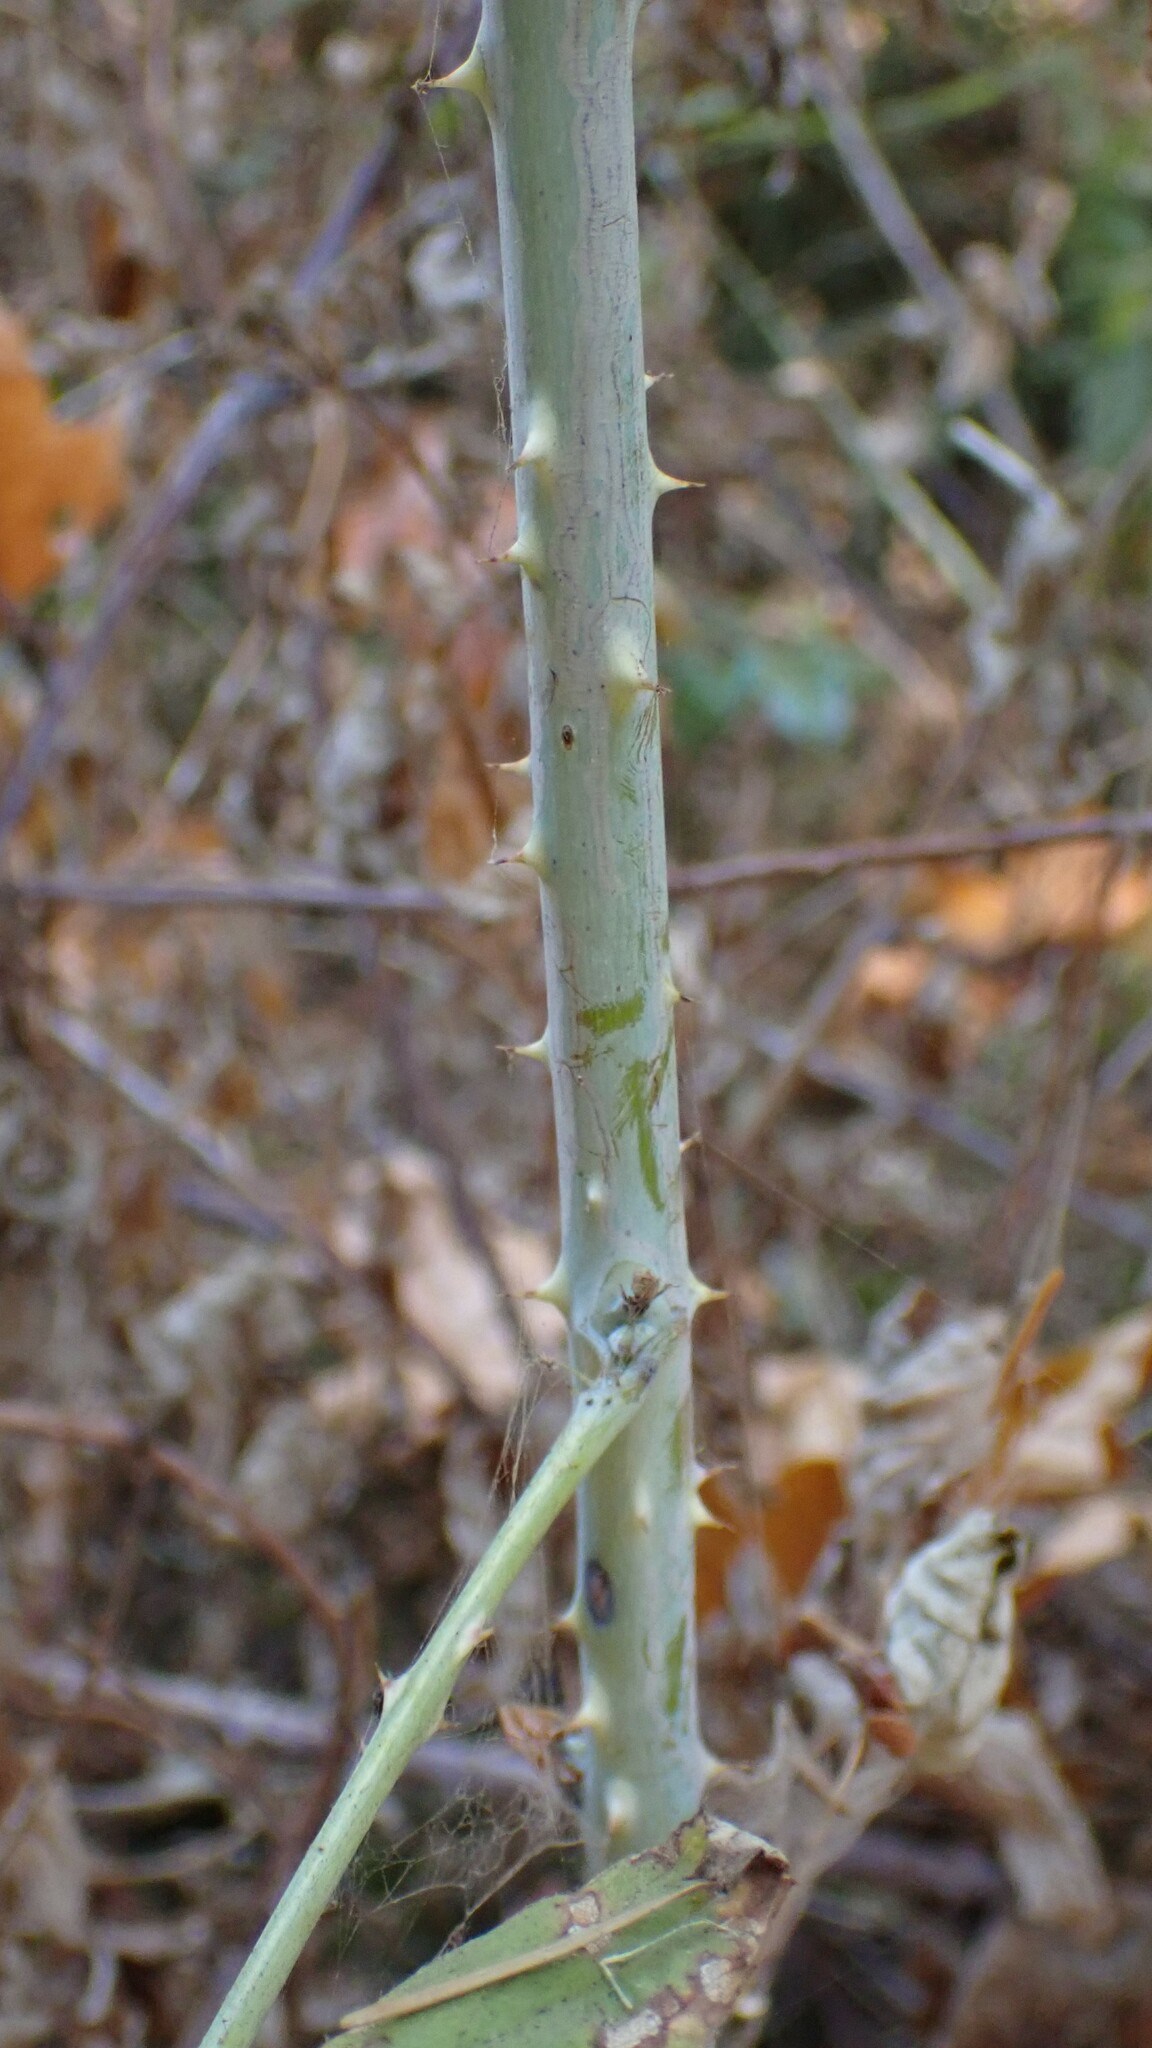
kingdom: Plantae
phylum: Tracheophyta
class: Magnoliopsida
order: Rosales
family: Rosaceae
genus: Rubus
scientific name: Rubus leucodermis
